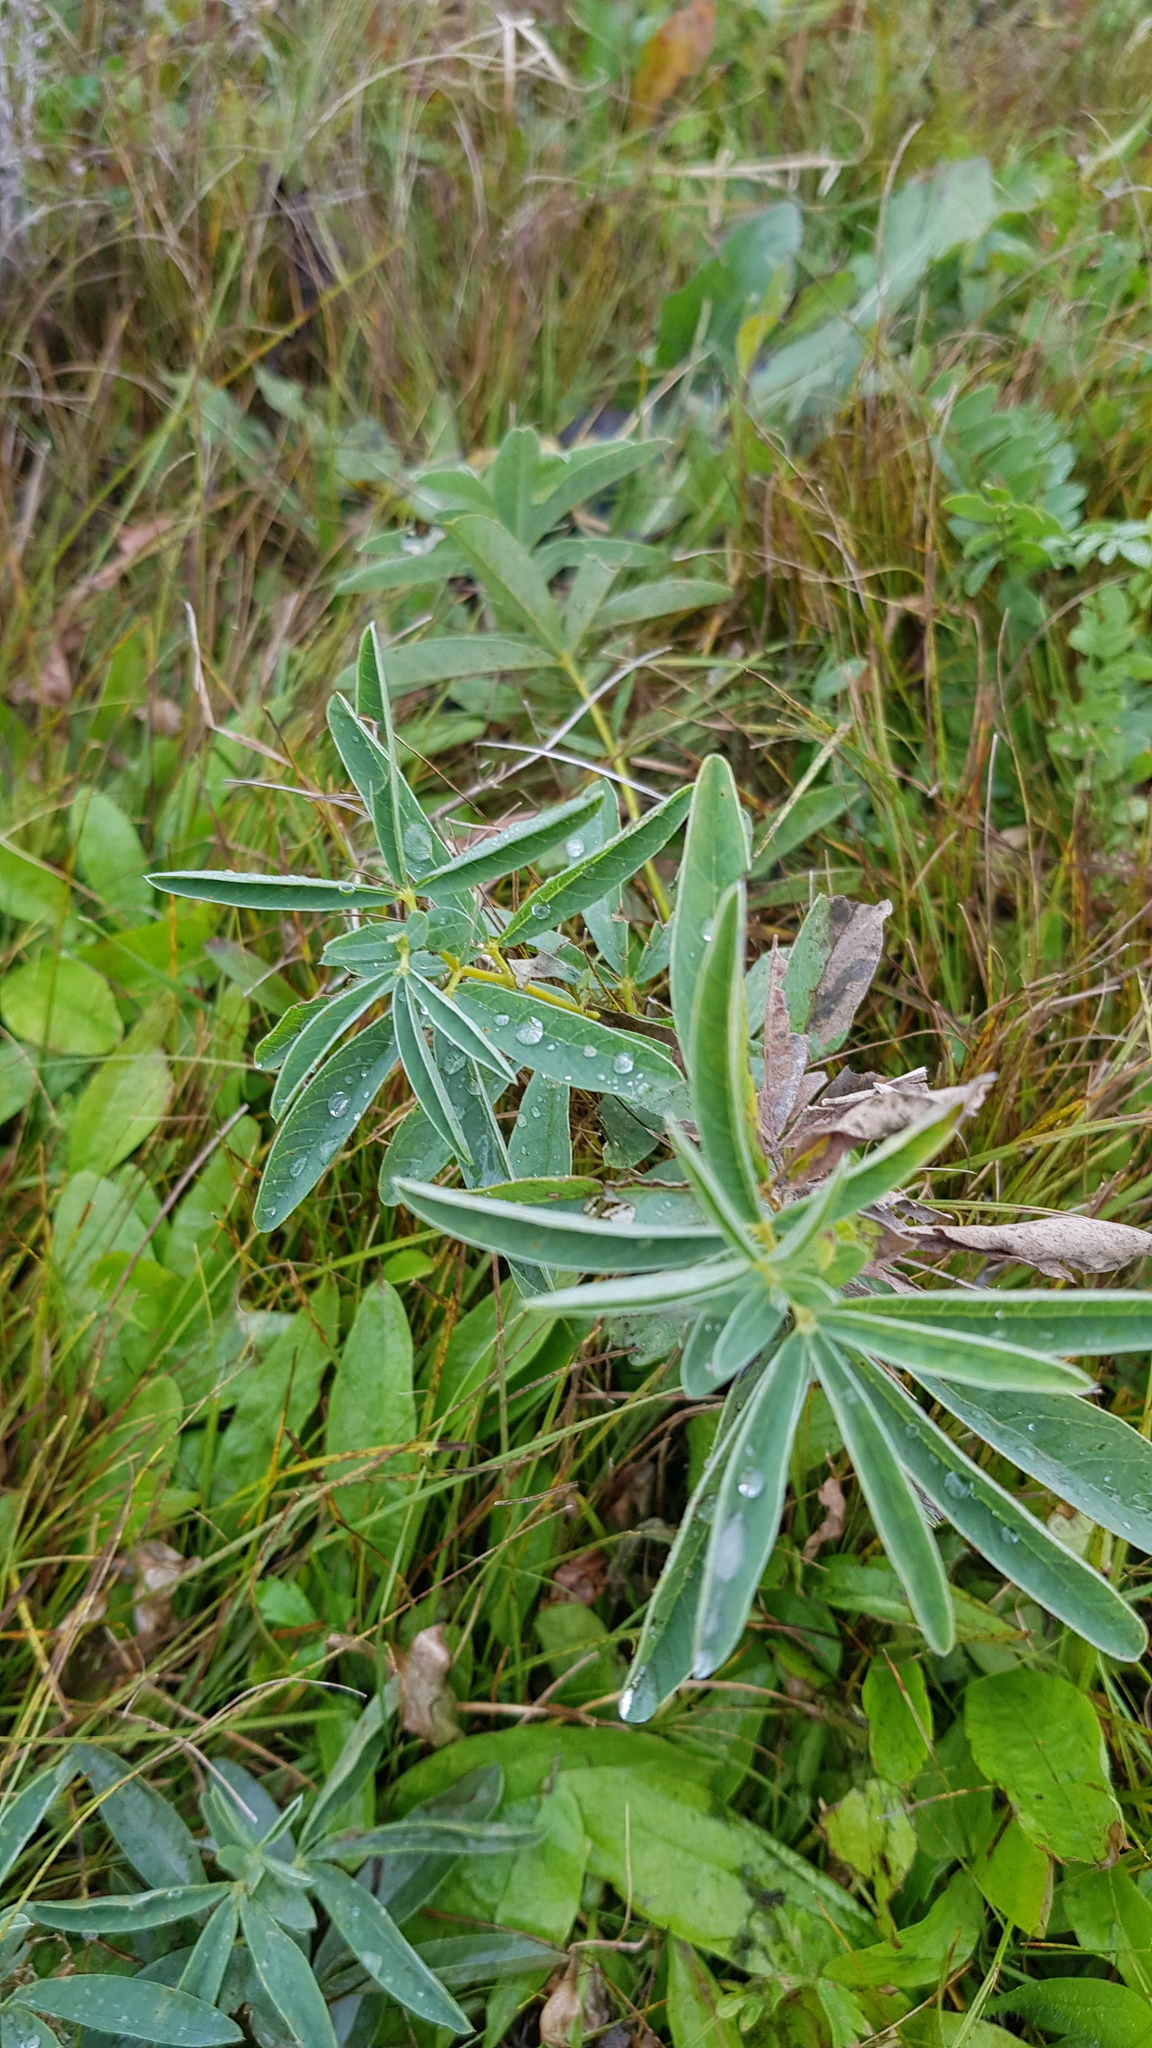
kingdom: Plantae
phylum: Tracheophyta
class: Magnoliopsida
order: Fabales
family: Fabaceae
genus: Thermopsis
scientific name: Thermopsis lanceolata
